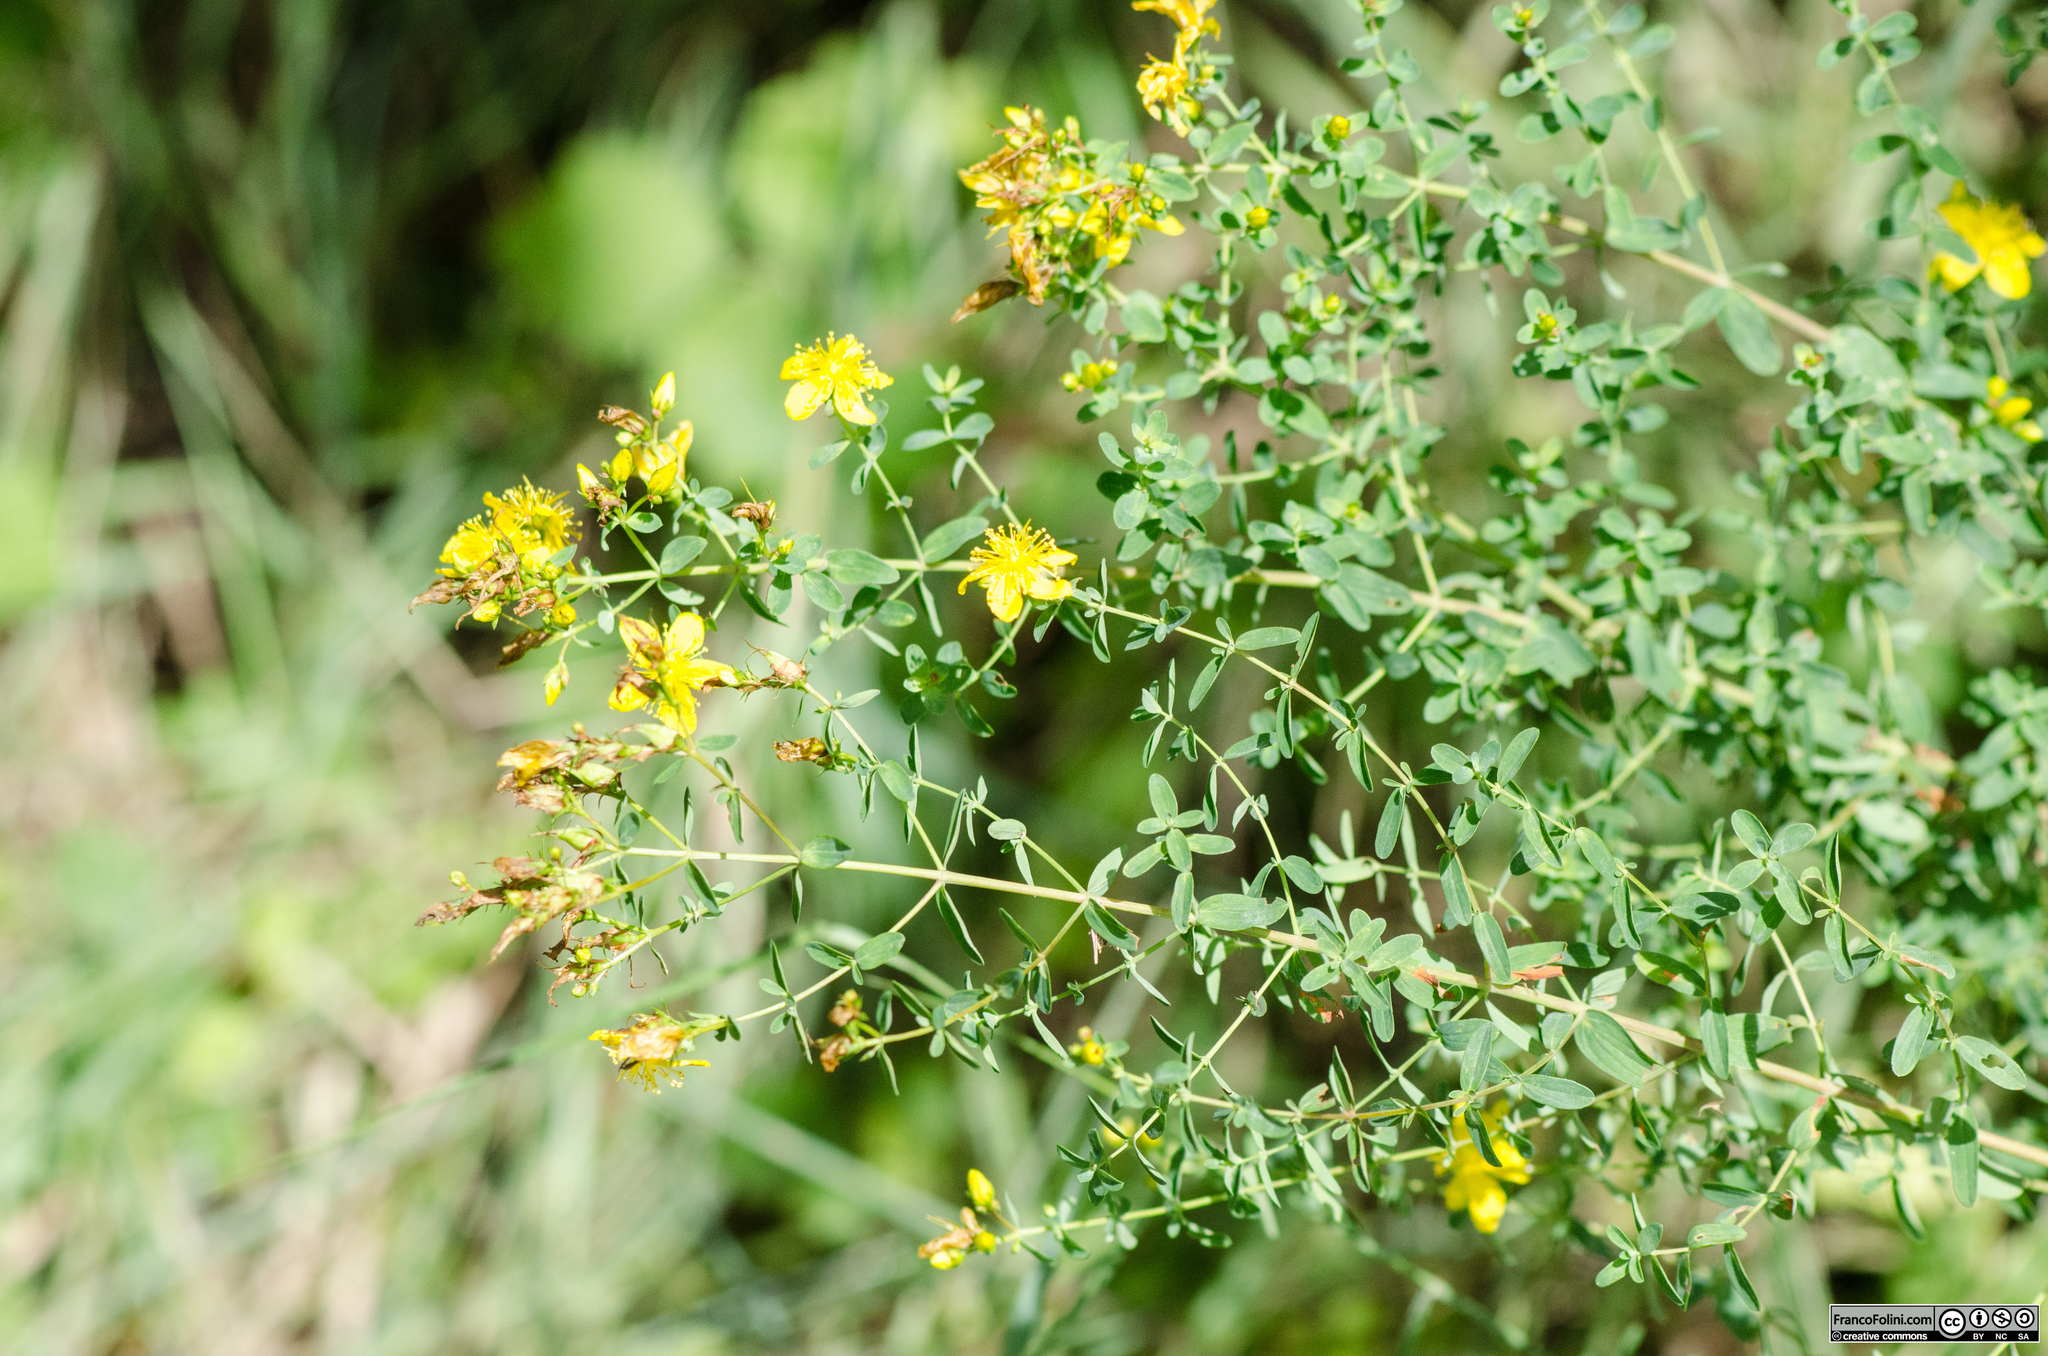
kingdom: Plantae
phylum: Tracheophyta
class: Magnoliopsida
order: Malpighiales
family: Hypericaceae
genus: Hypericum
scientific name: Hypericum perforatum
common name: Common st. johnswort
